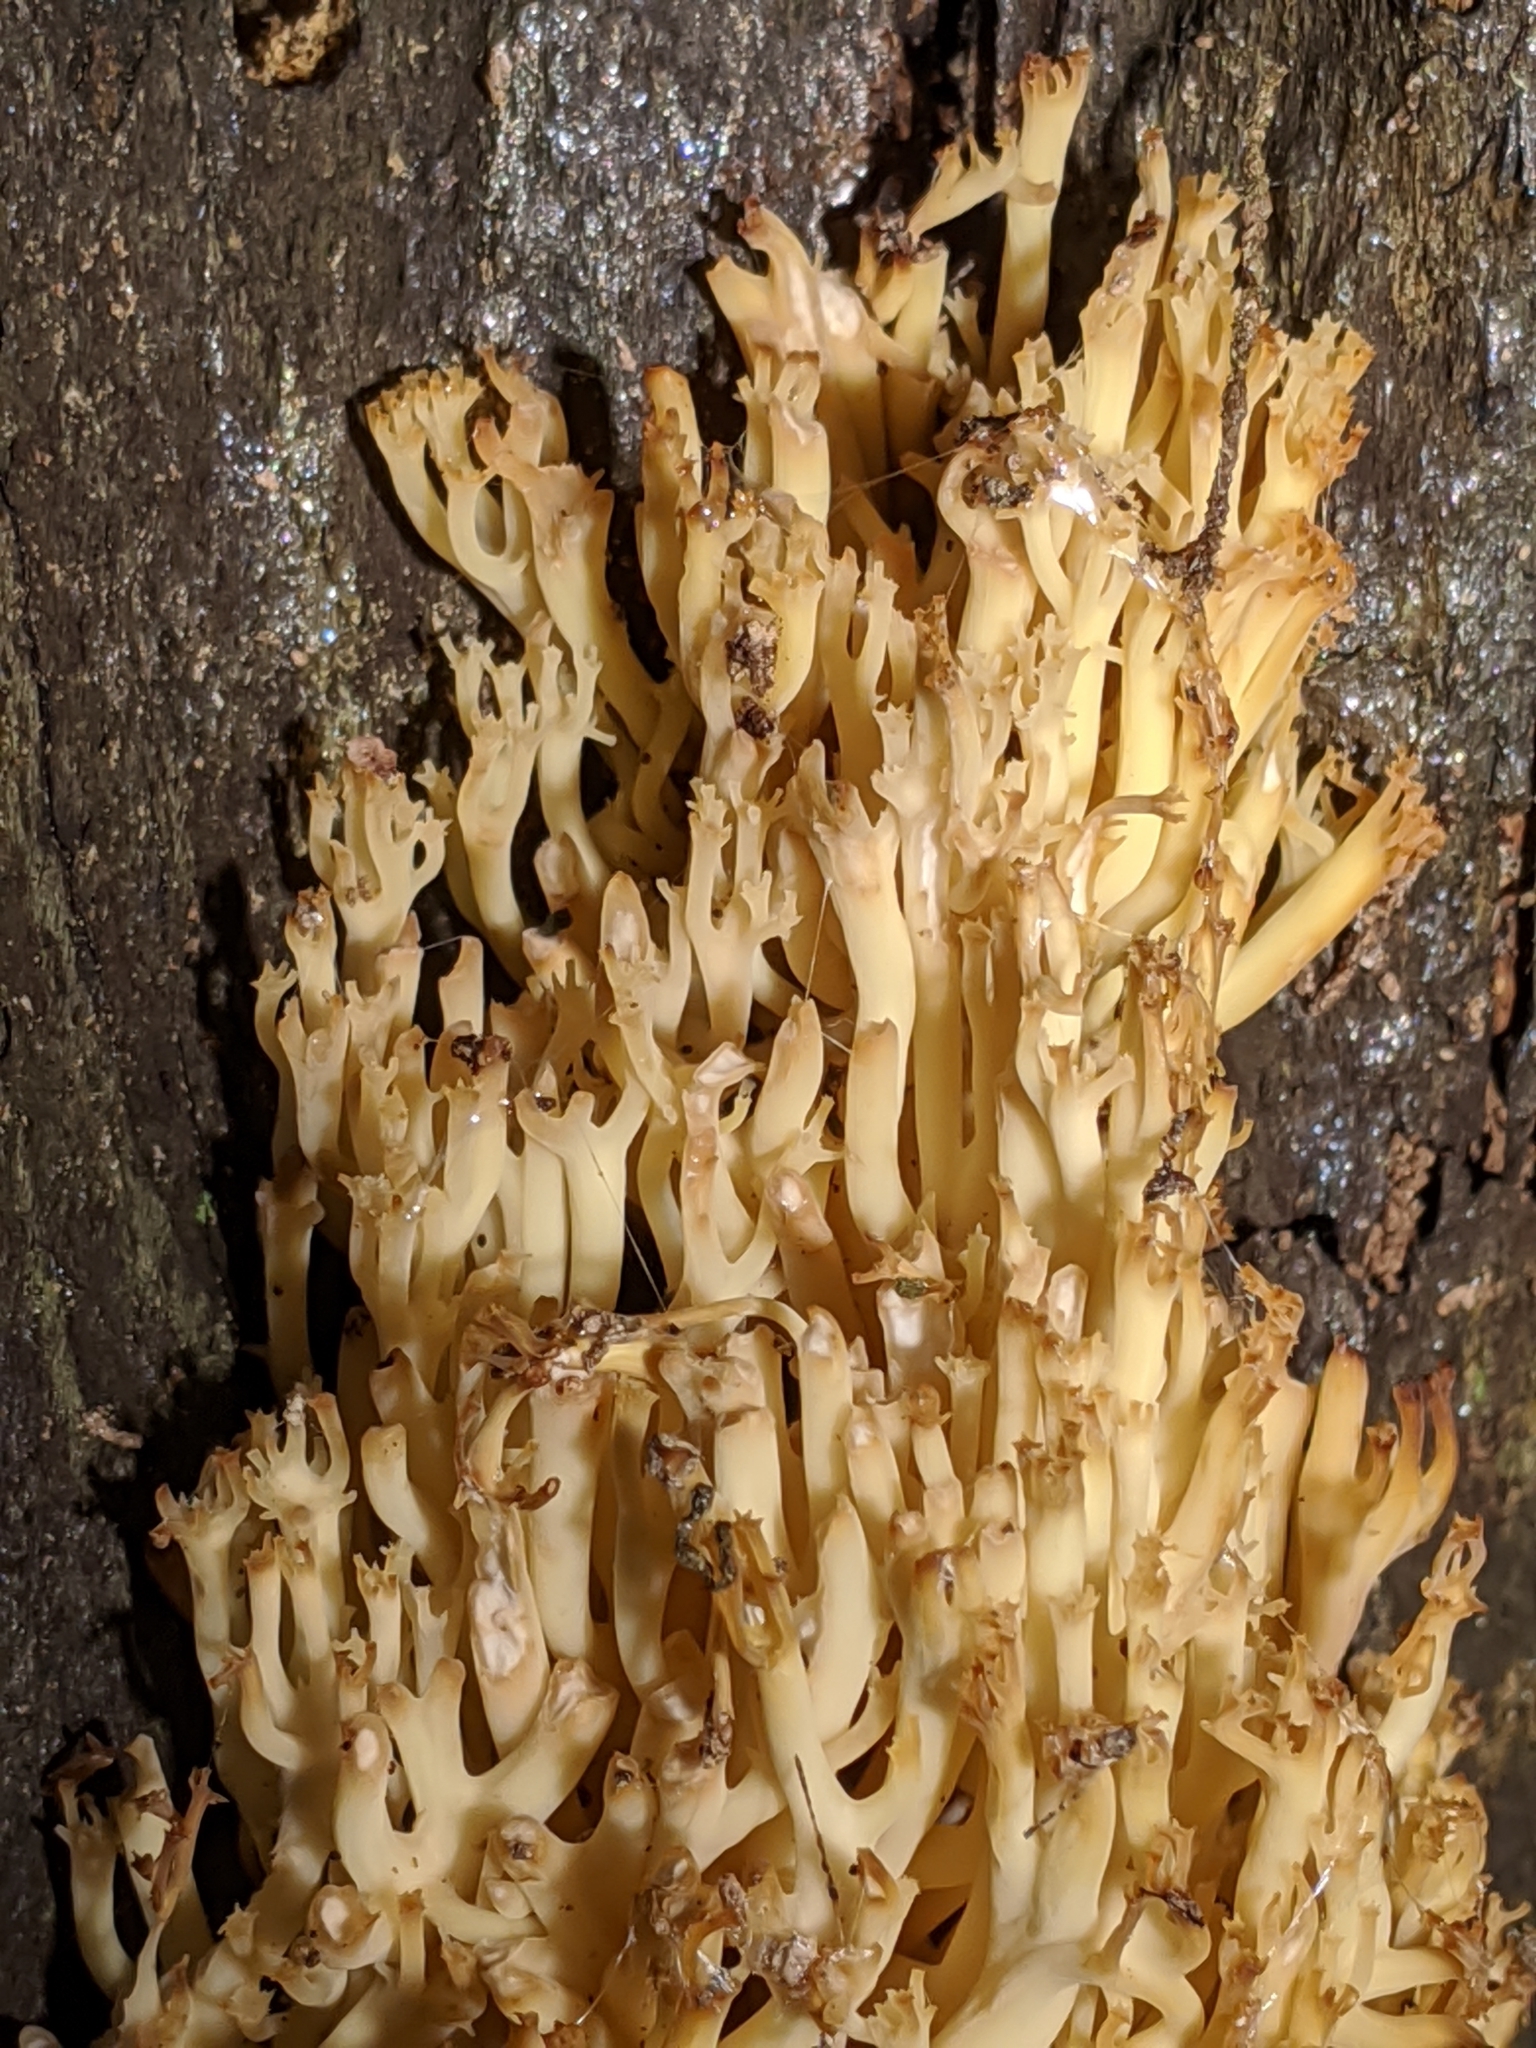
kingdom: Fungi
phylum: Basidiomycota
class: Agaricomycetes
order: Russulales
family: Auriscalpiaceae
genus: Artomyces
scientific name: Artomyces pyxidatus
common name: Crown-tipped coral fungus
